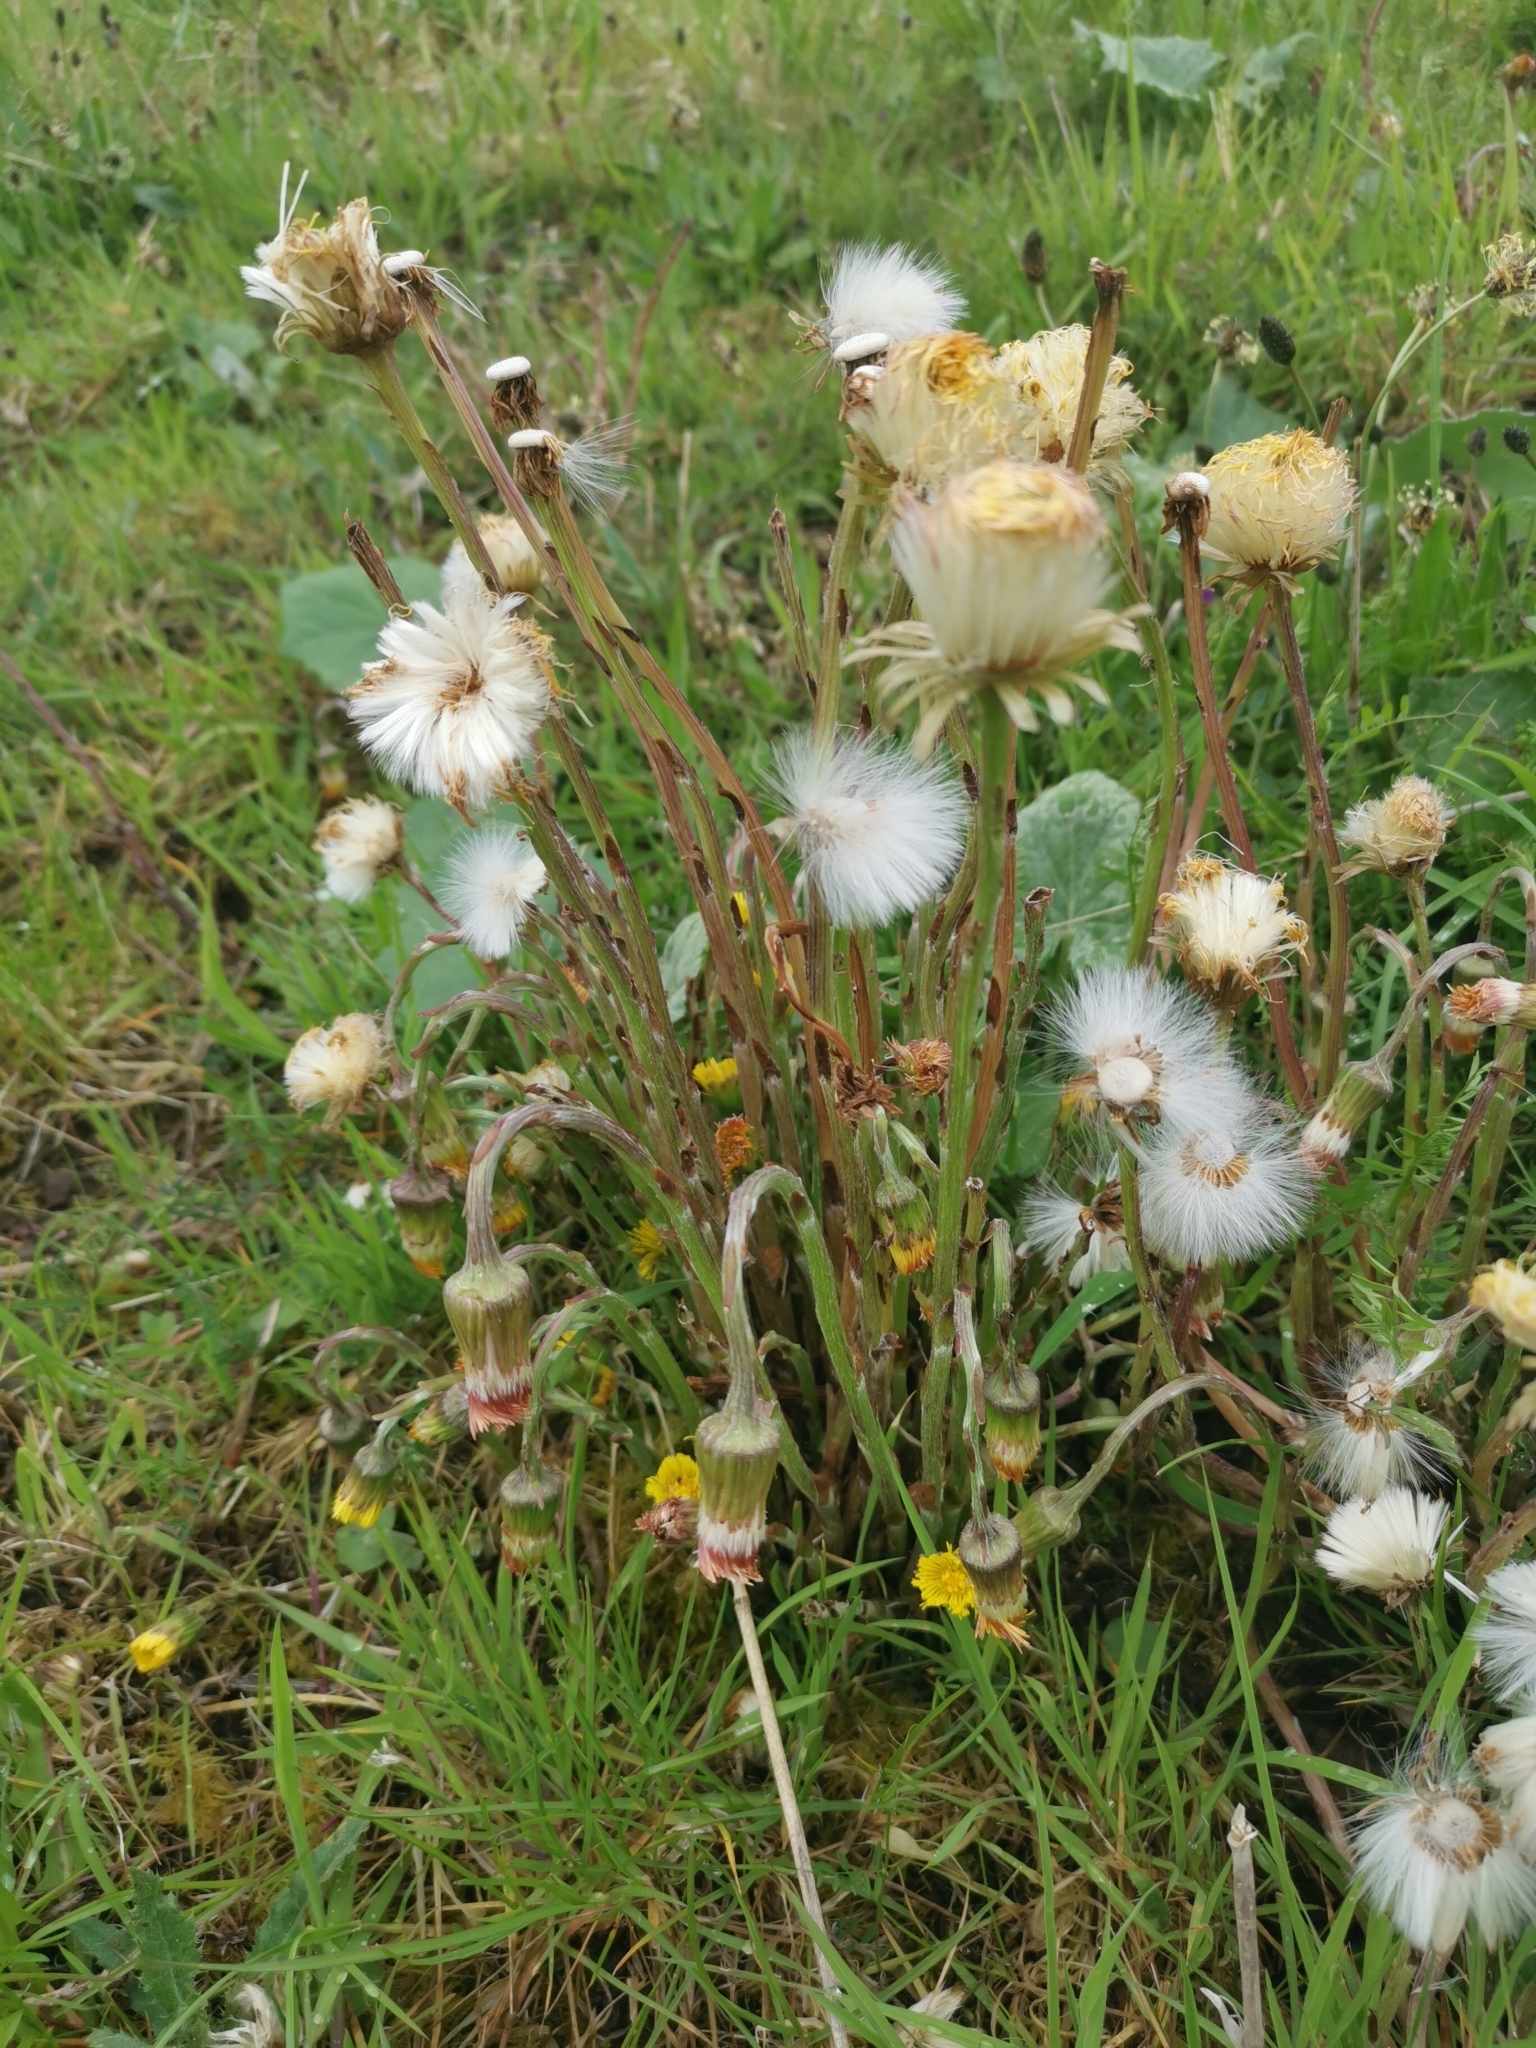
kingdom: Plantae
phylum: Tracheophyta
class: Magnoliopsida
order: Asterales
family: Asteraceae
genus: Tussilago
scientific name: Tussilago farfara
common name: Coltsfoot
